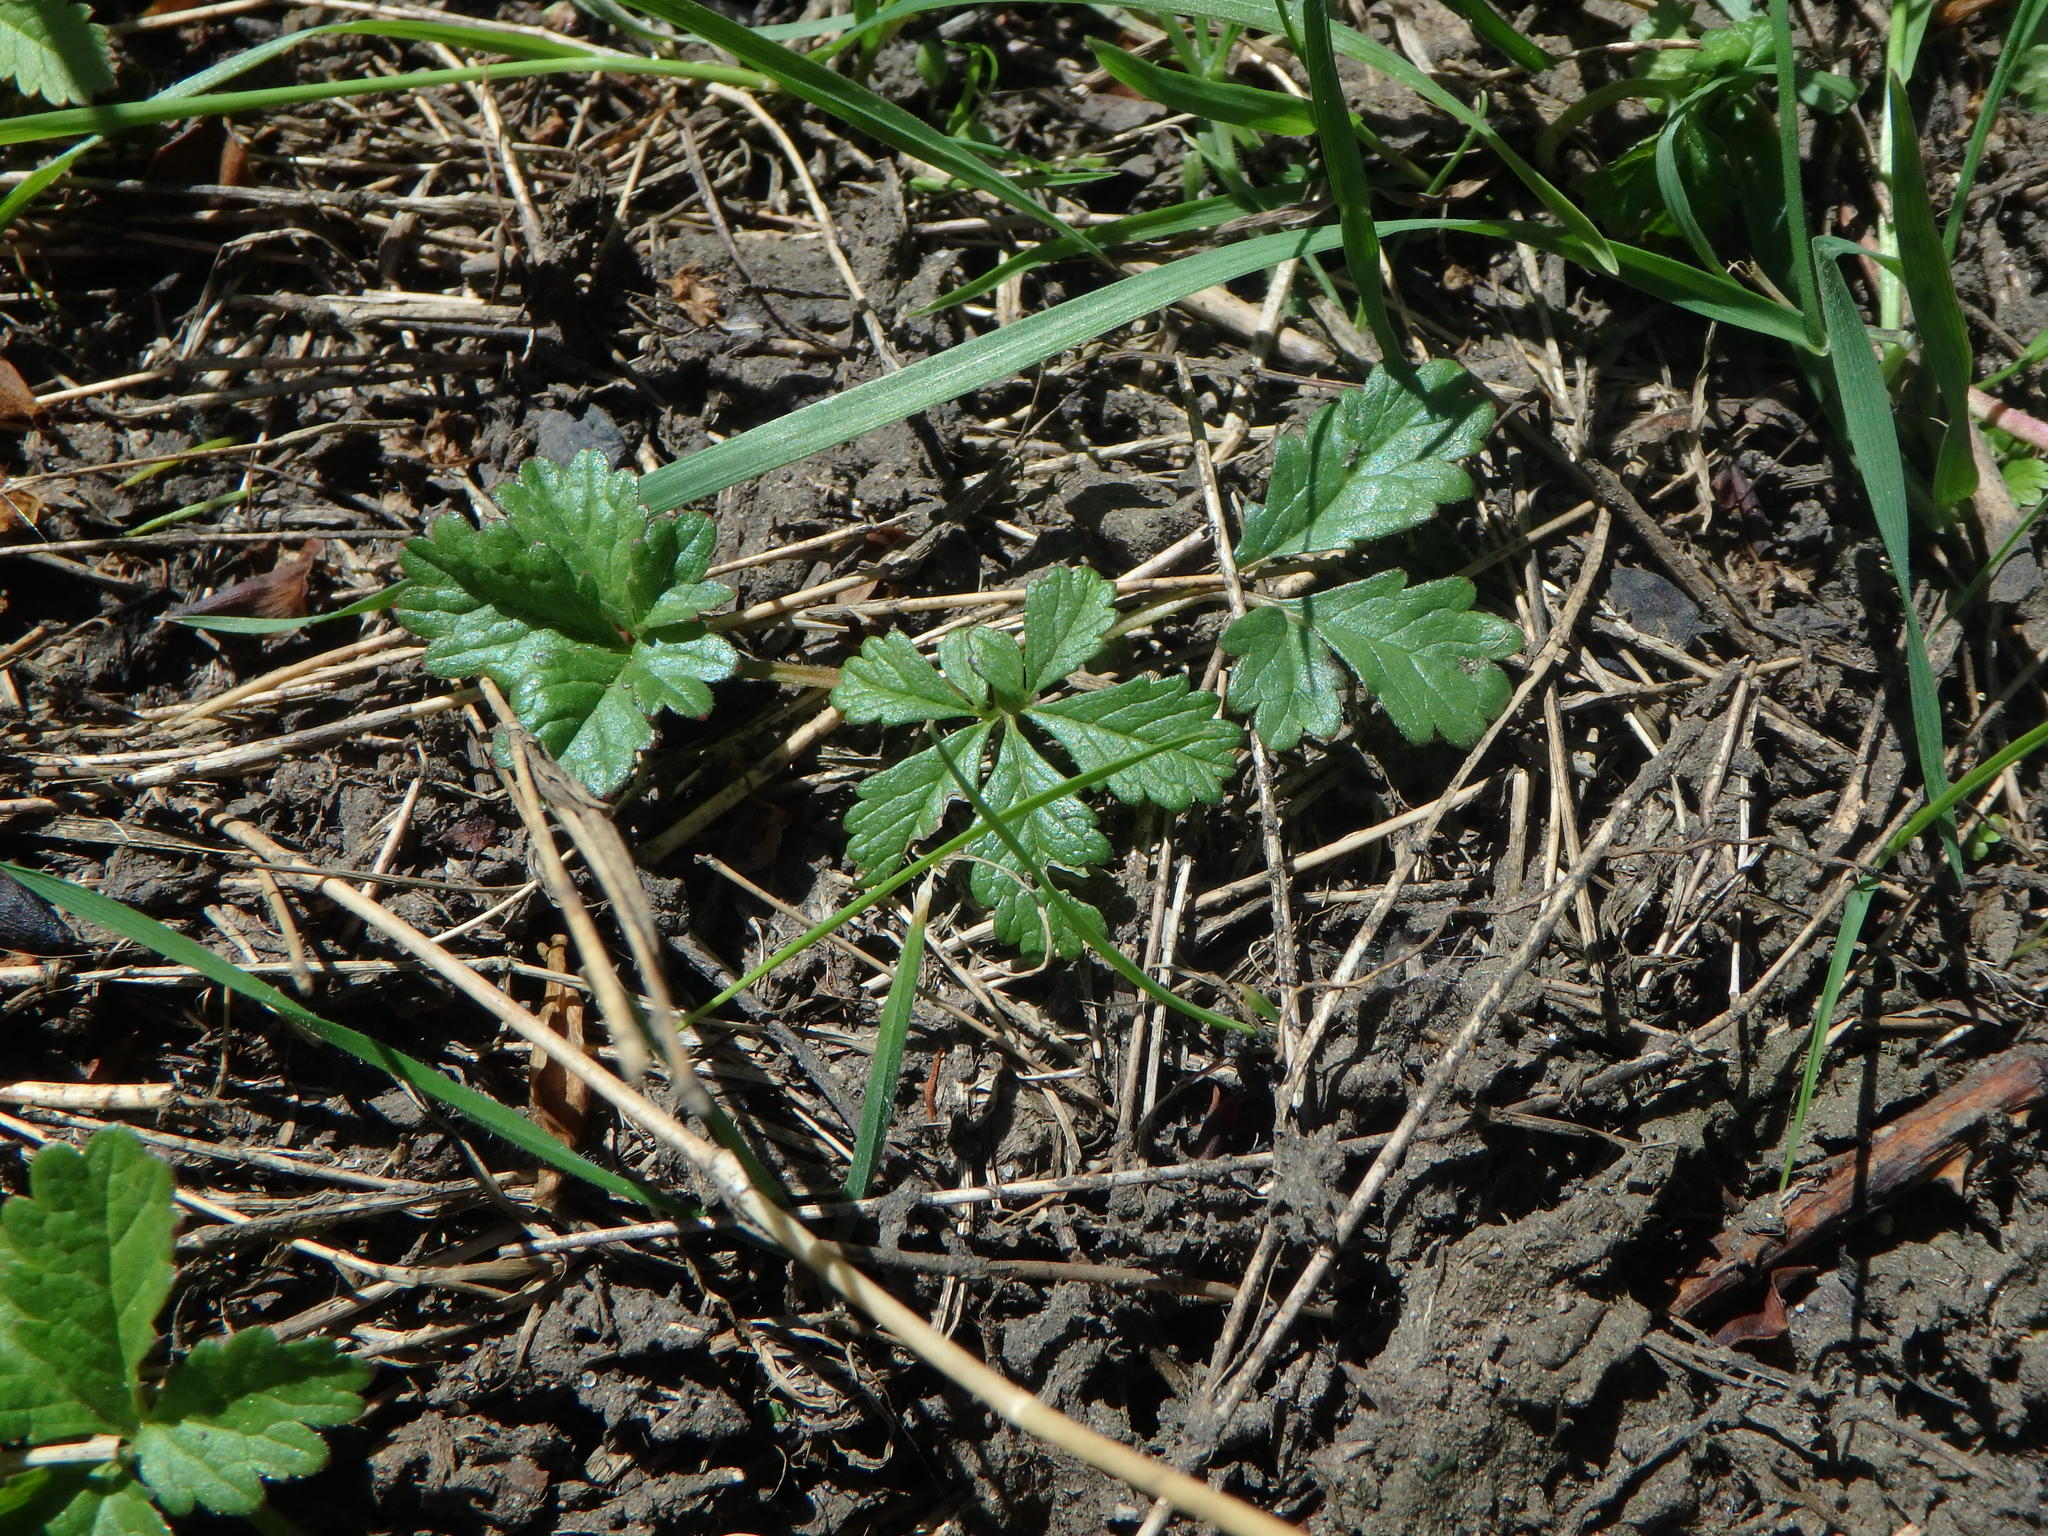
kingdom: Plantae
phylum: Tracheophyta
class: Magnoliopsida
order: Rosales
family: Rosaceae
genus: Potentilla
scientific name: Potentilla reptans
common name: Creeping cinquefoil
